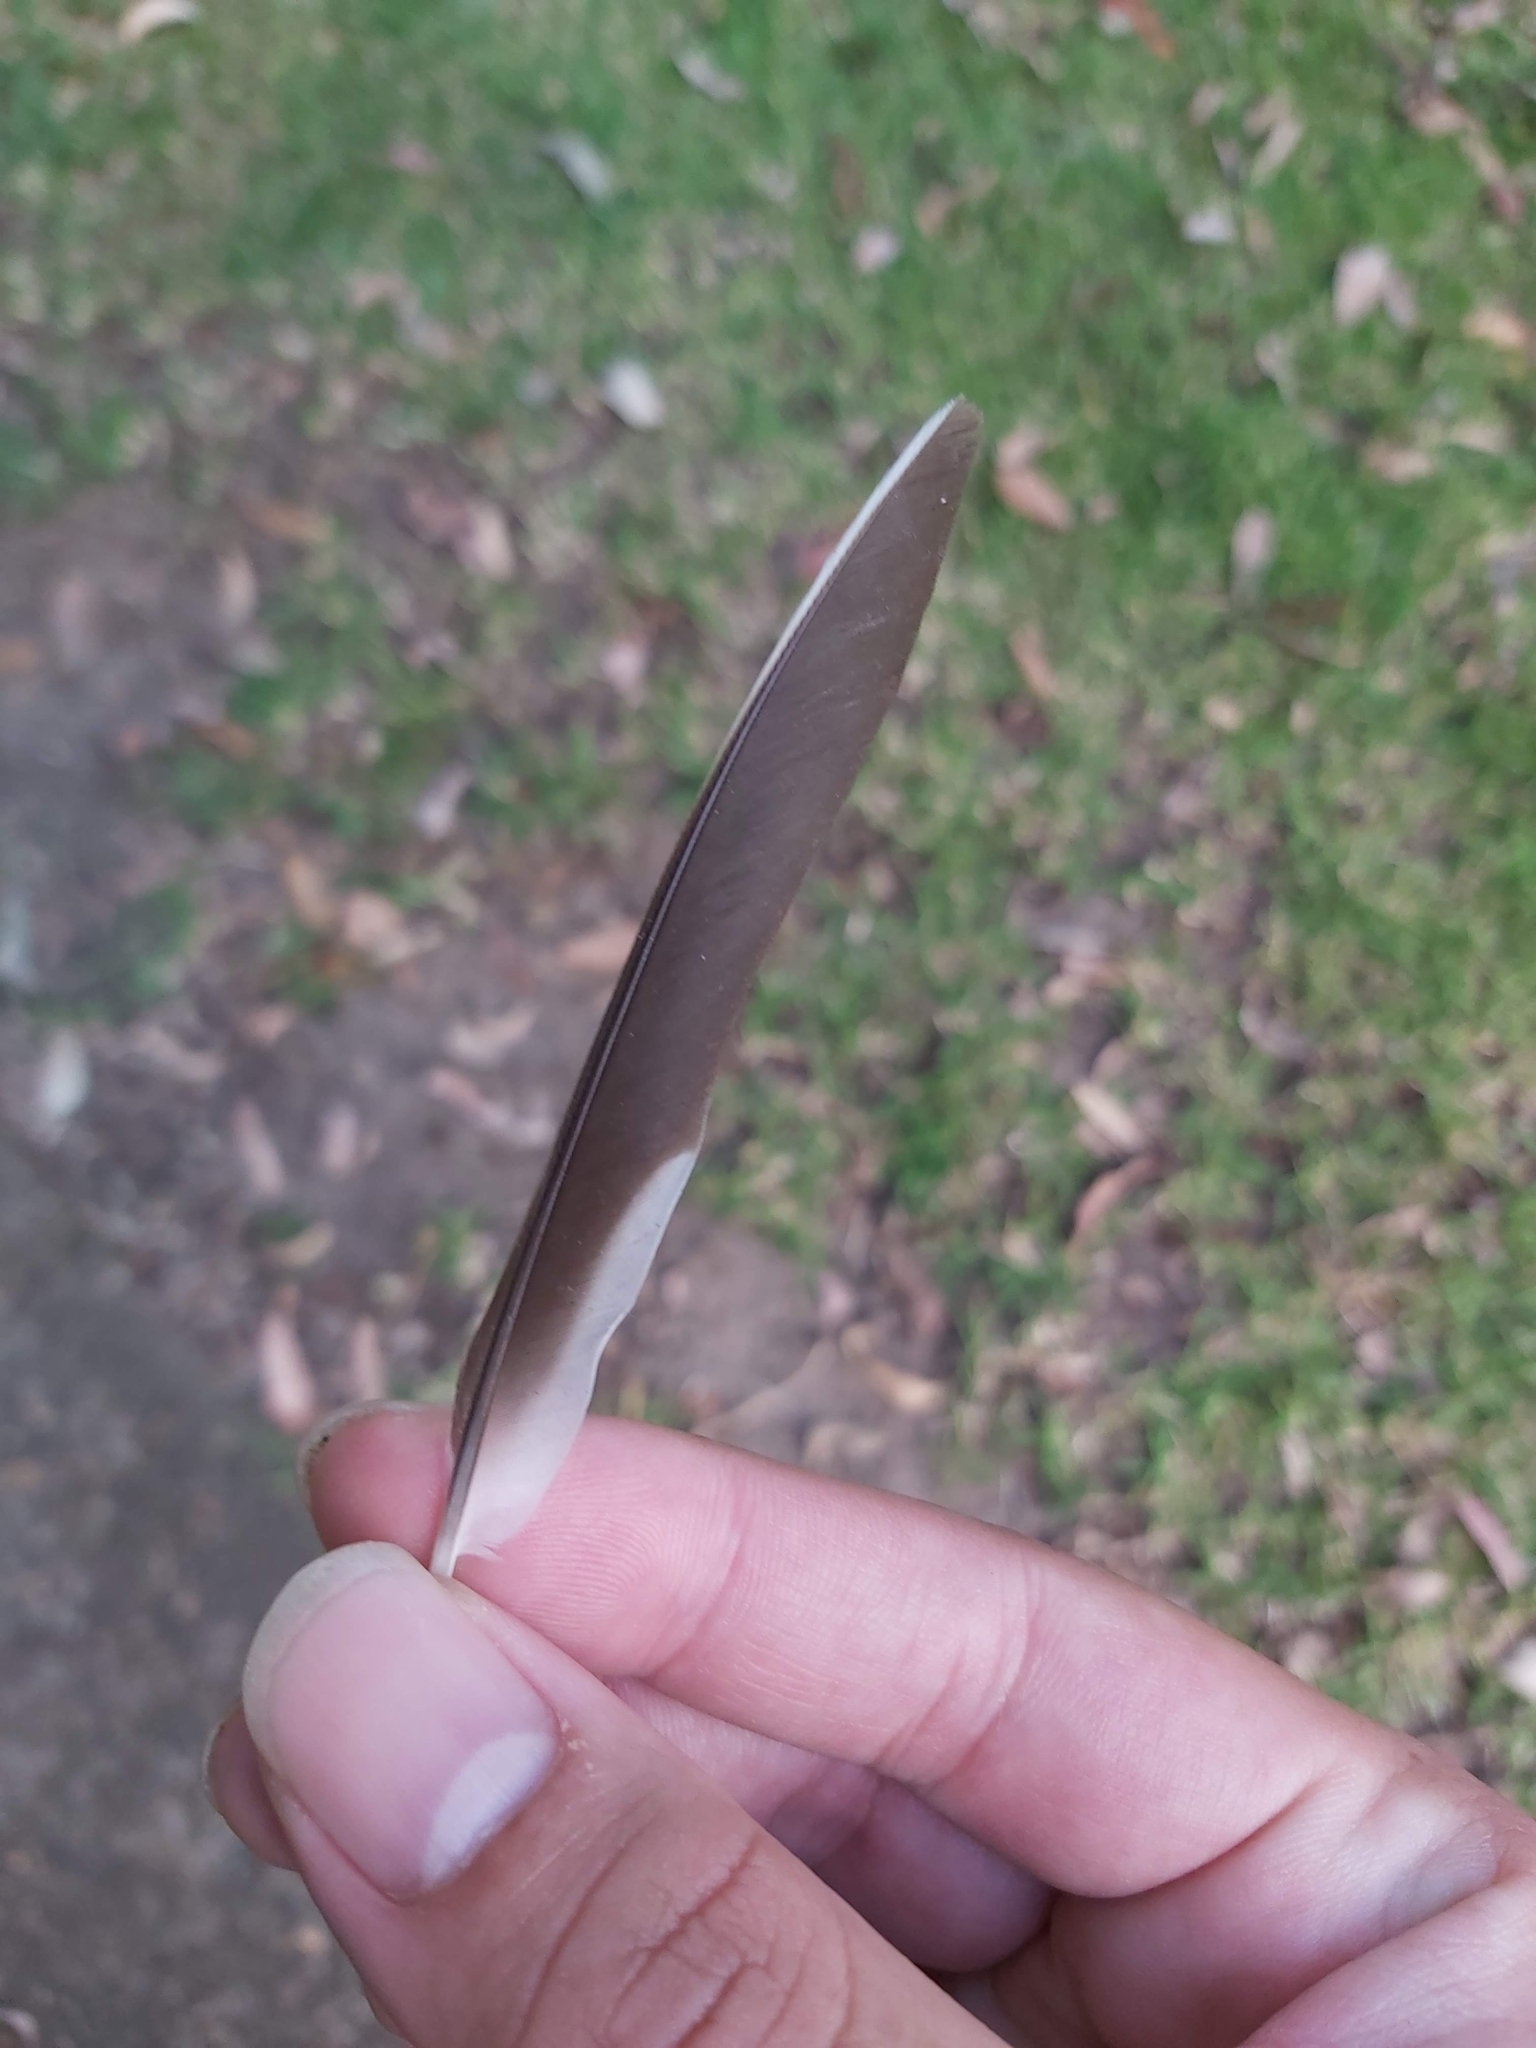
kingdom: Animalia
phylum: Chordata
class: Aves
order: Passeriformes
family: Meliphagidae
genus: Manorina
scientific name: Manorina melanocephala
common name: Noisy miner
